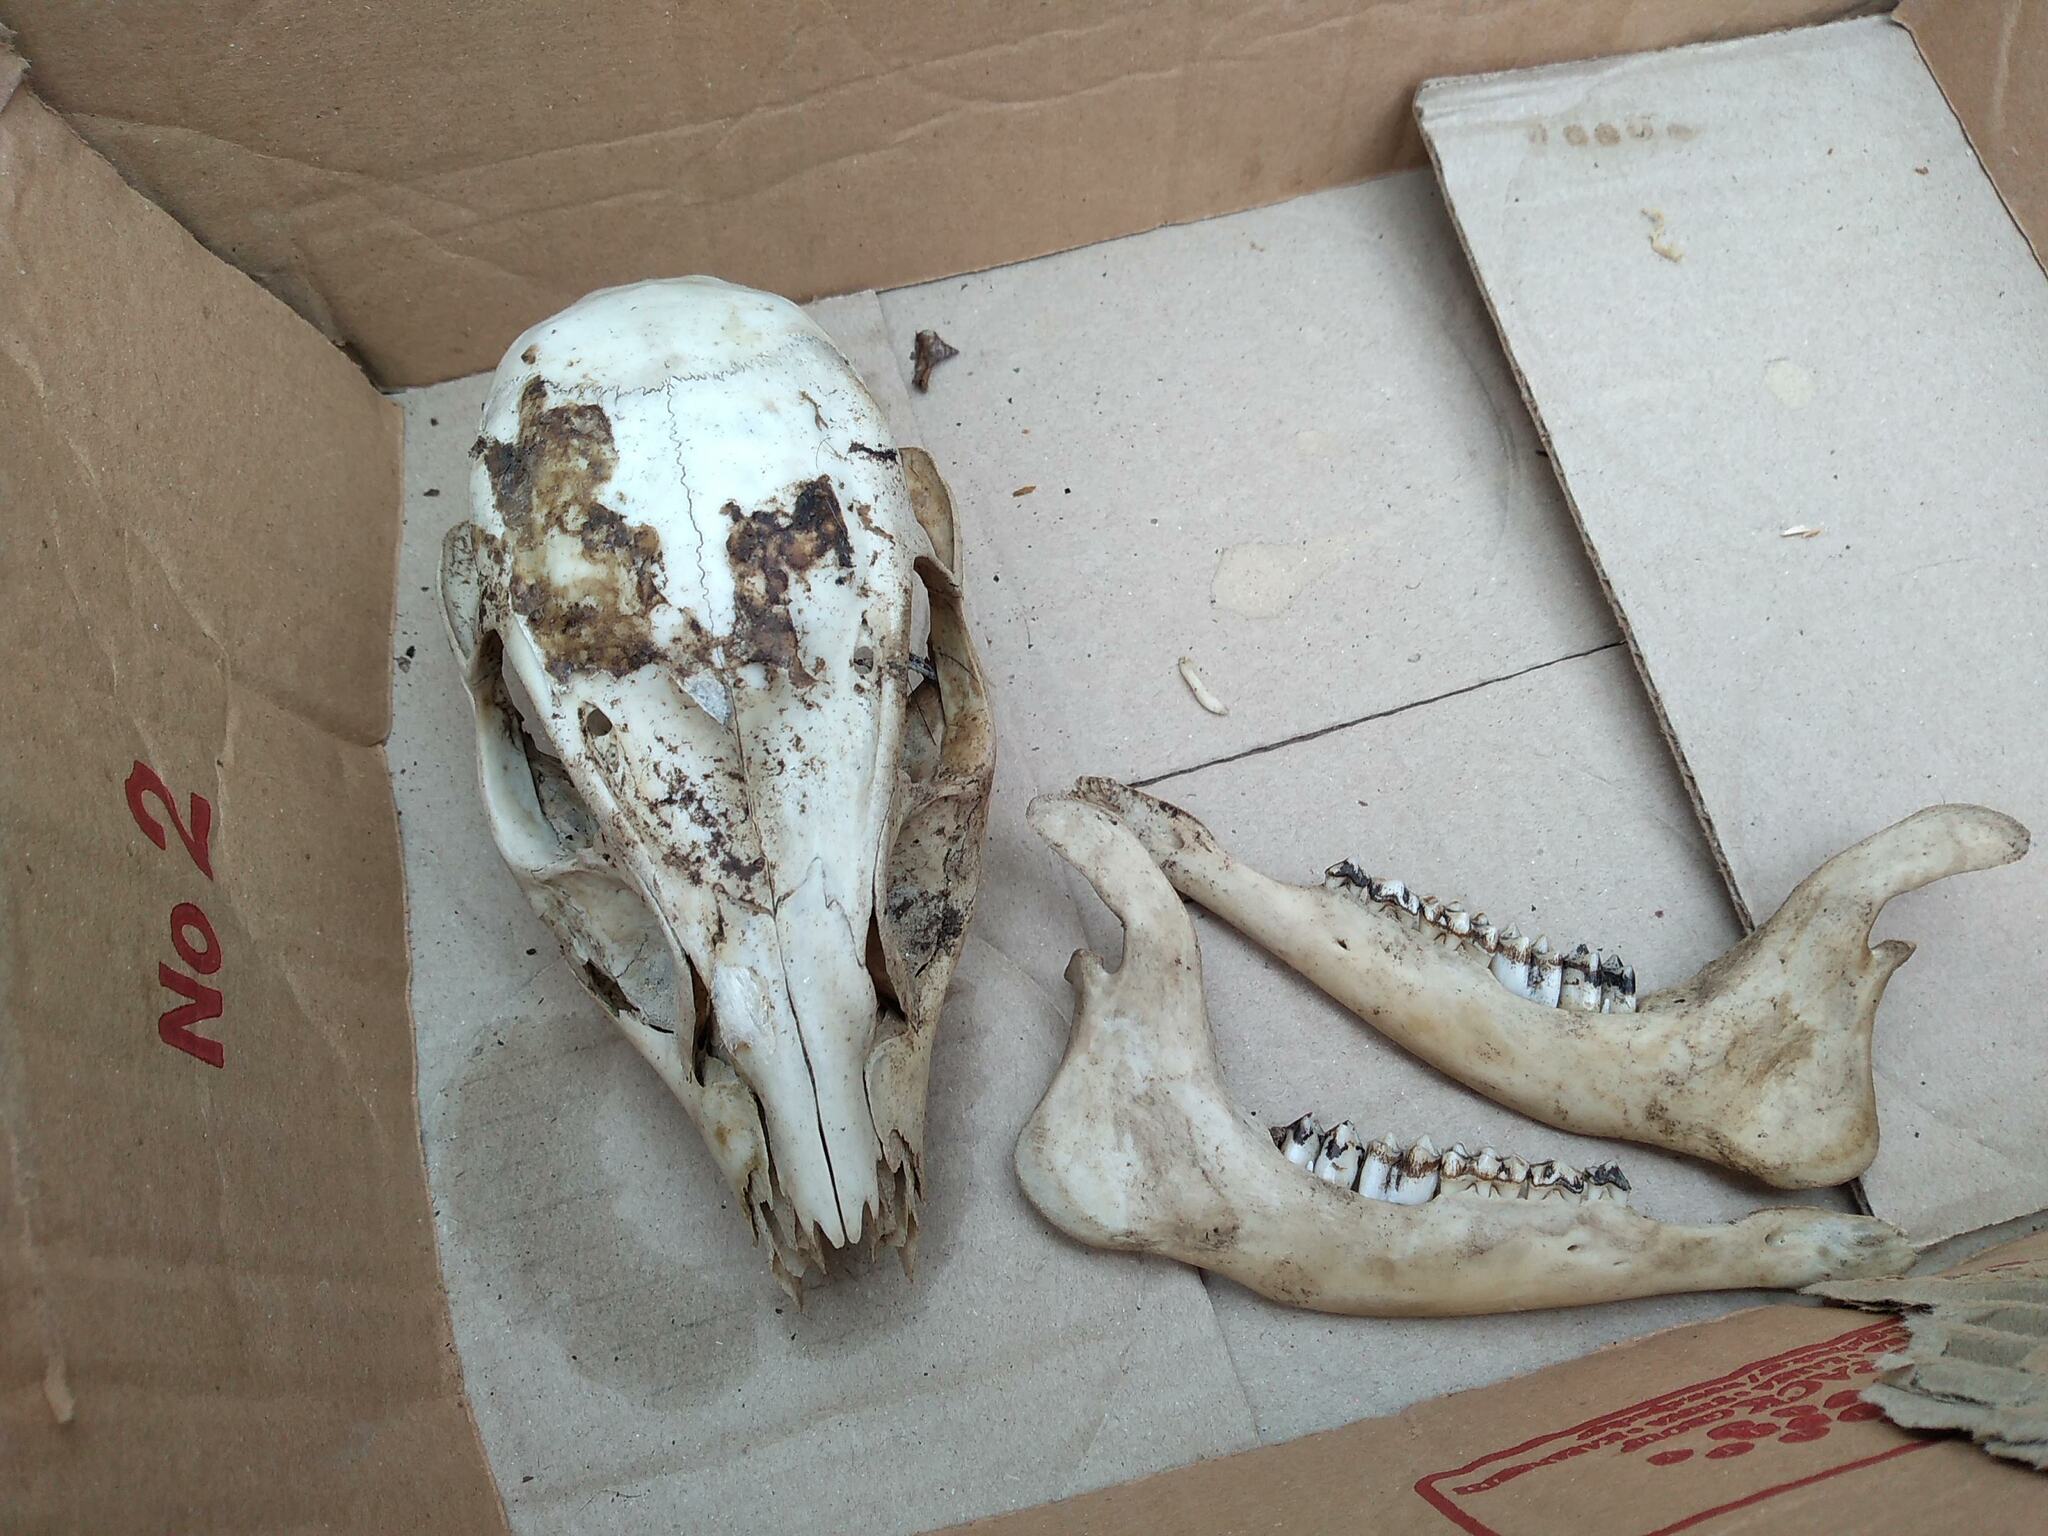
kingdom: Animalia
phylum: Chordata
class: Mammalia
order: Artiodactyla
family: Cervidae
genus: Muntiacus
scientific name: Muntiacus reevesi
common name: Reeves' muntjac
